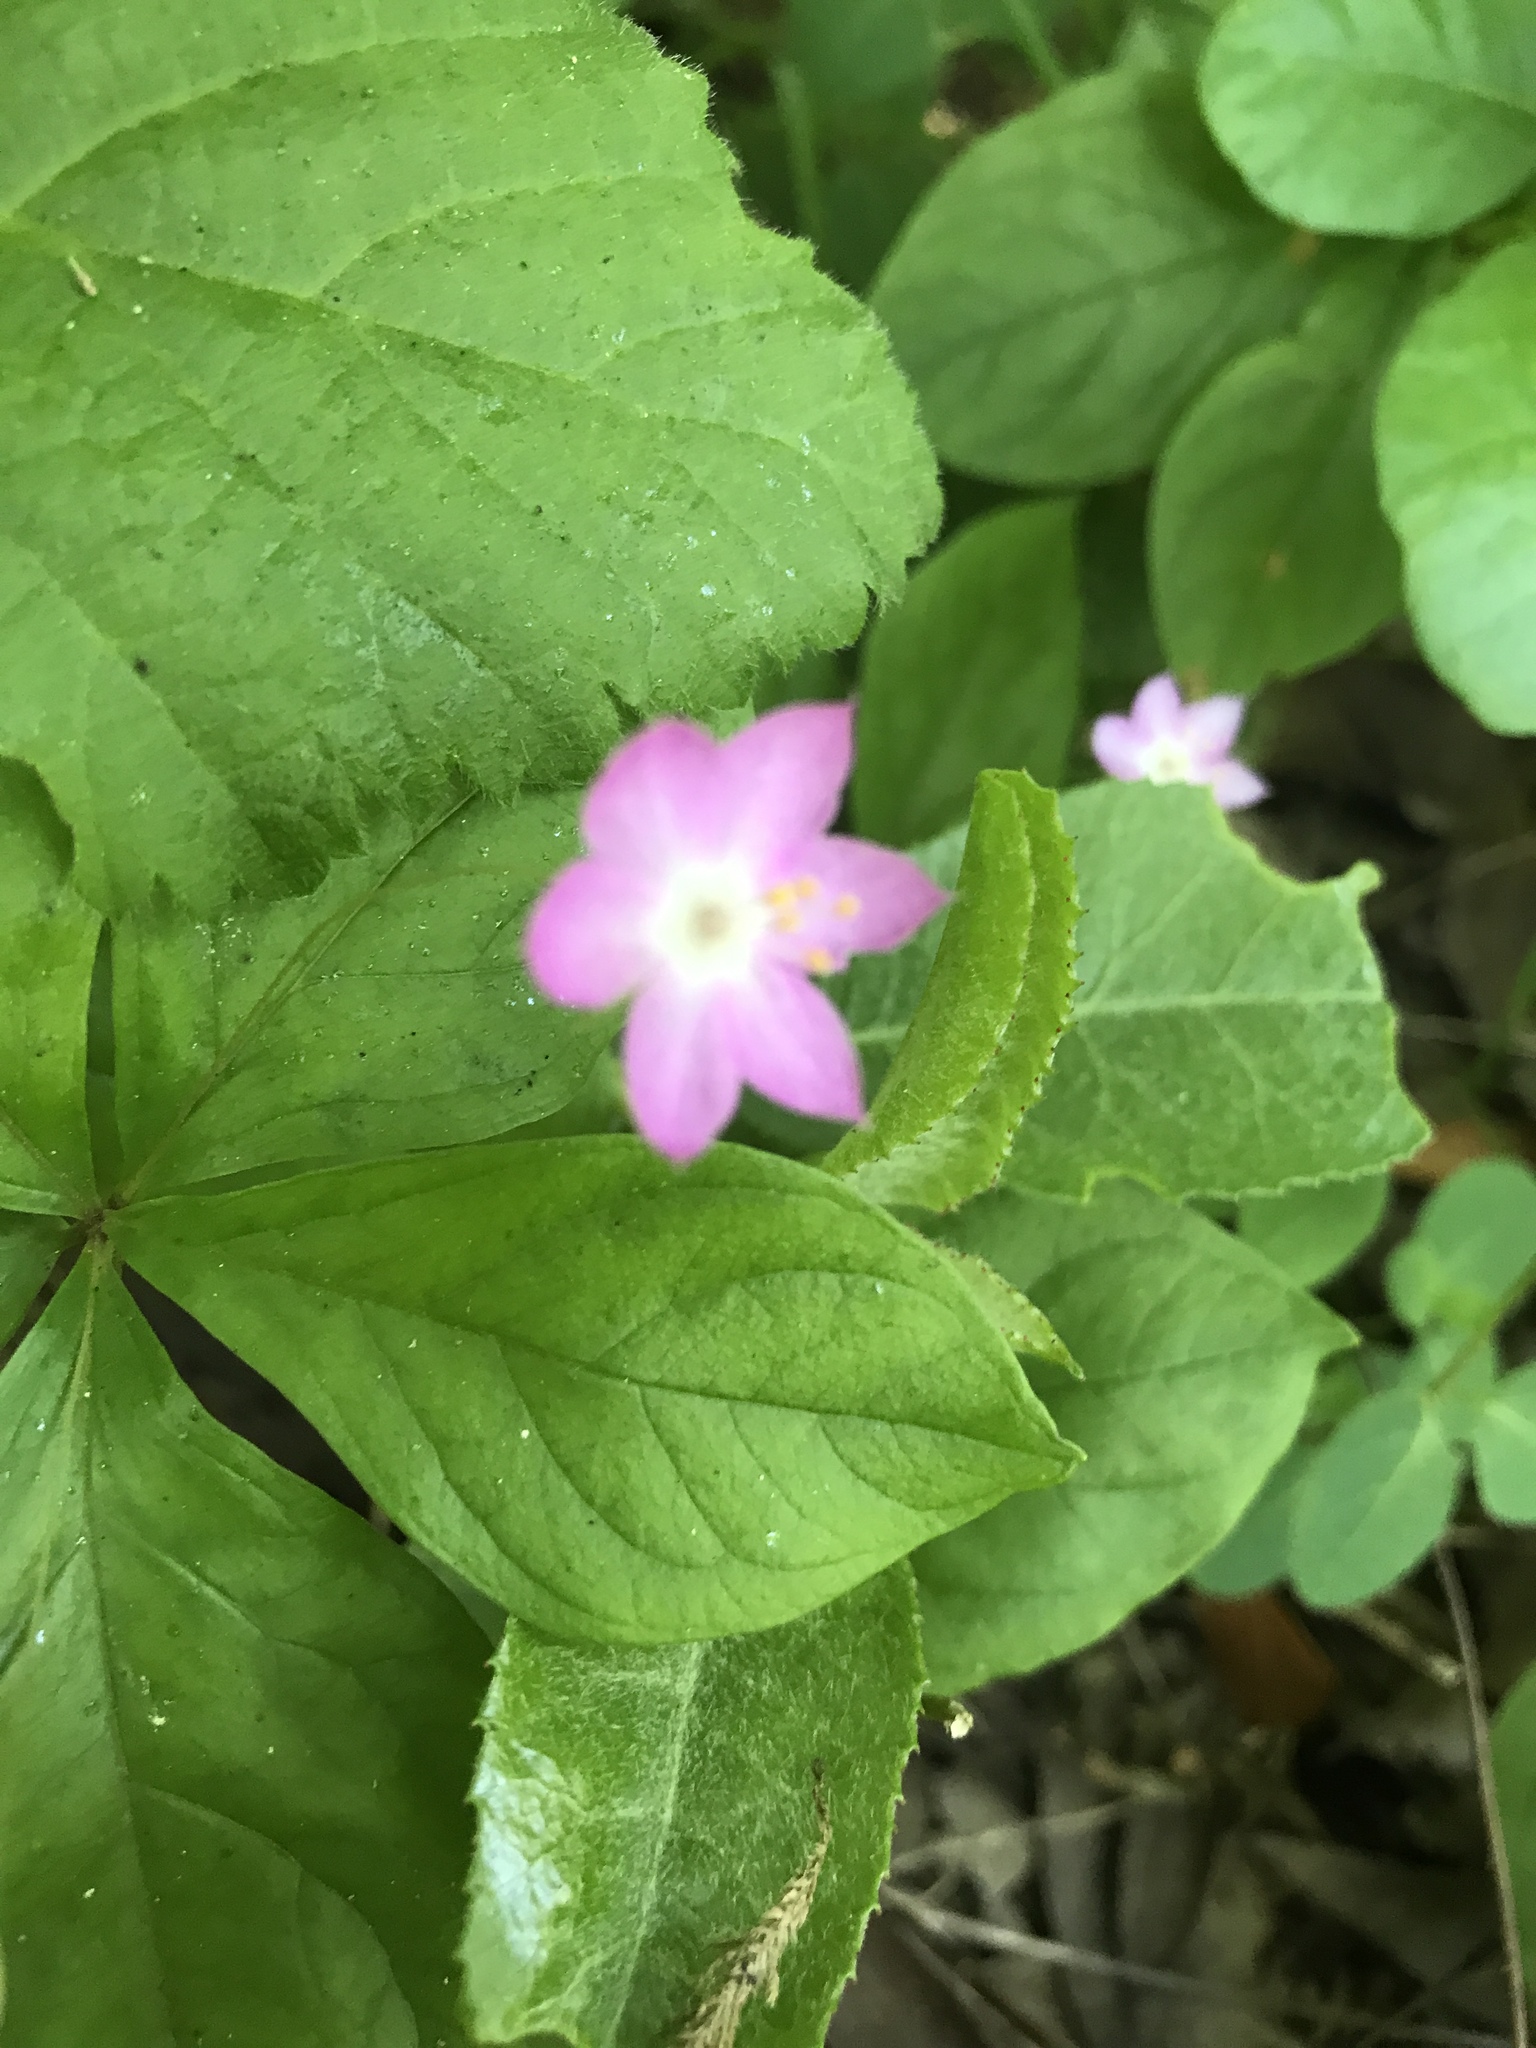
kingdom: Plantae
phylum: Tracheophyta
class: Magnoliopsida
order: Ericales
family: Primulaceae
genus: Lysimachia
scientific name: Lysimachia latifolia
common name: Pacific starflower
